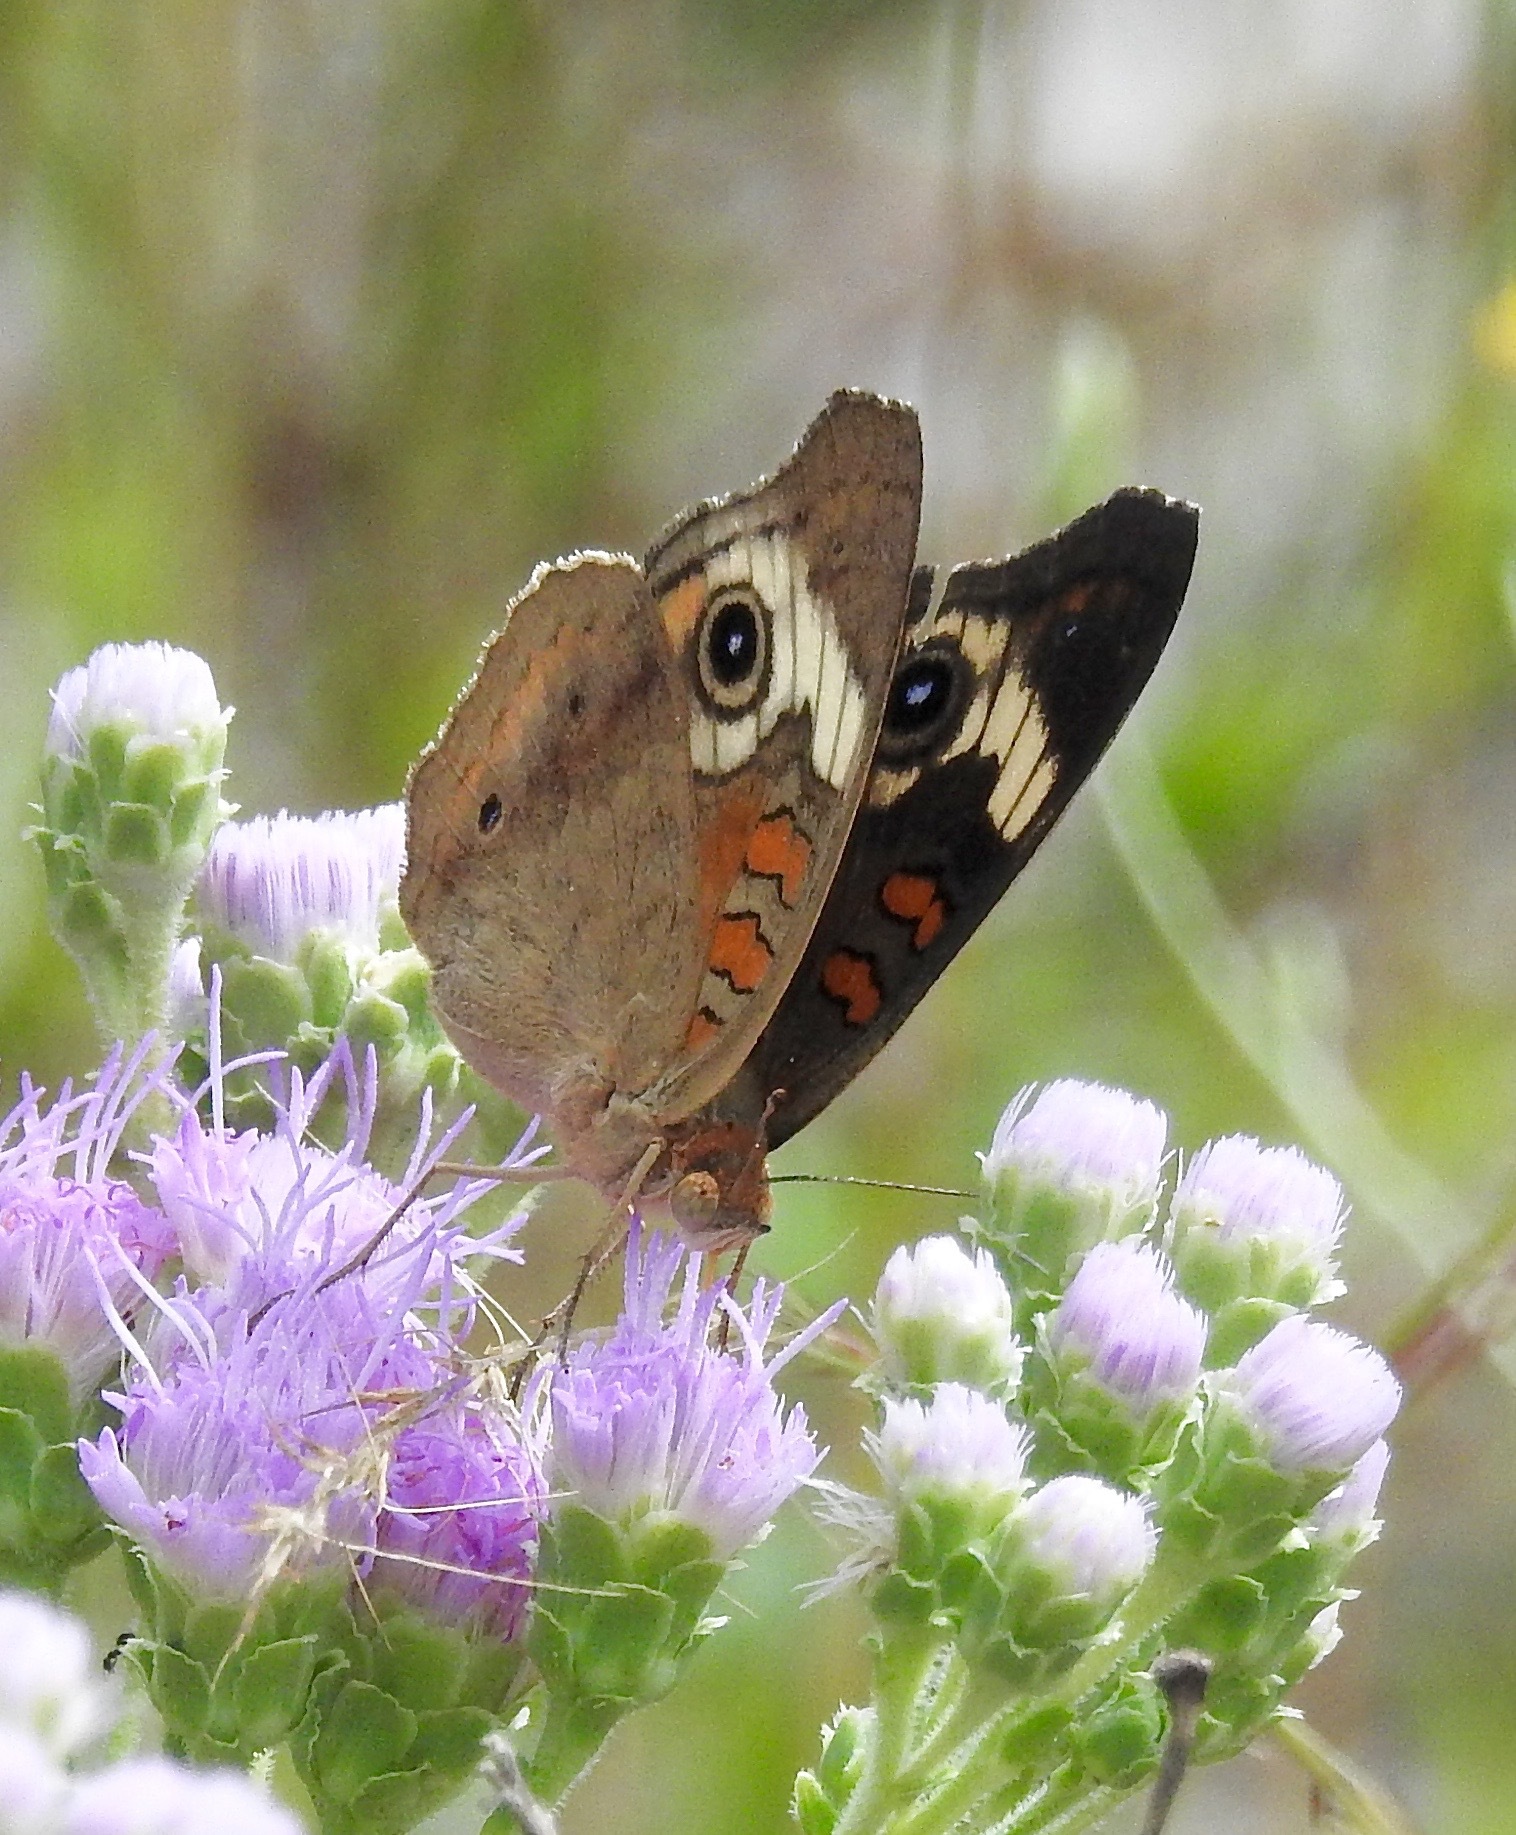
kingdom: Animalia
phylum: Arthropoda
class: Insecta
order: Lepidoptera
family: Nymphalidae
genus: Junonia
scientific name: Junonia coenia
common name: Common buckeye
